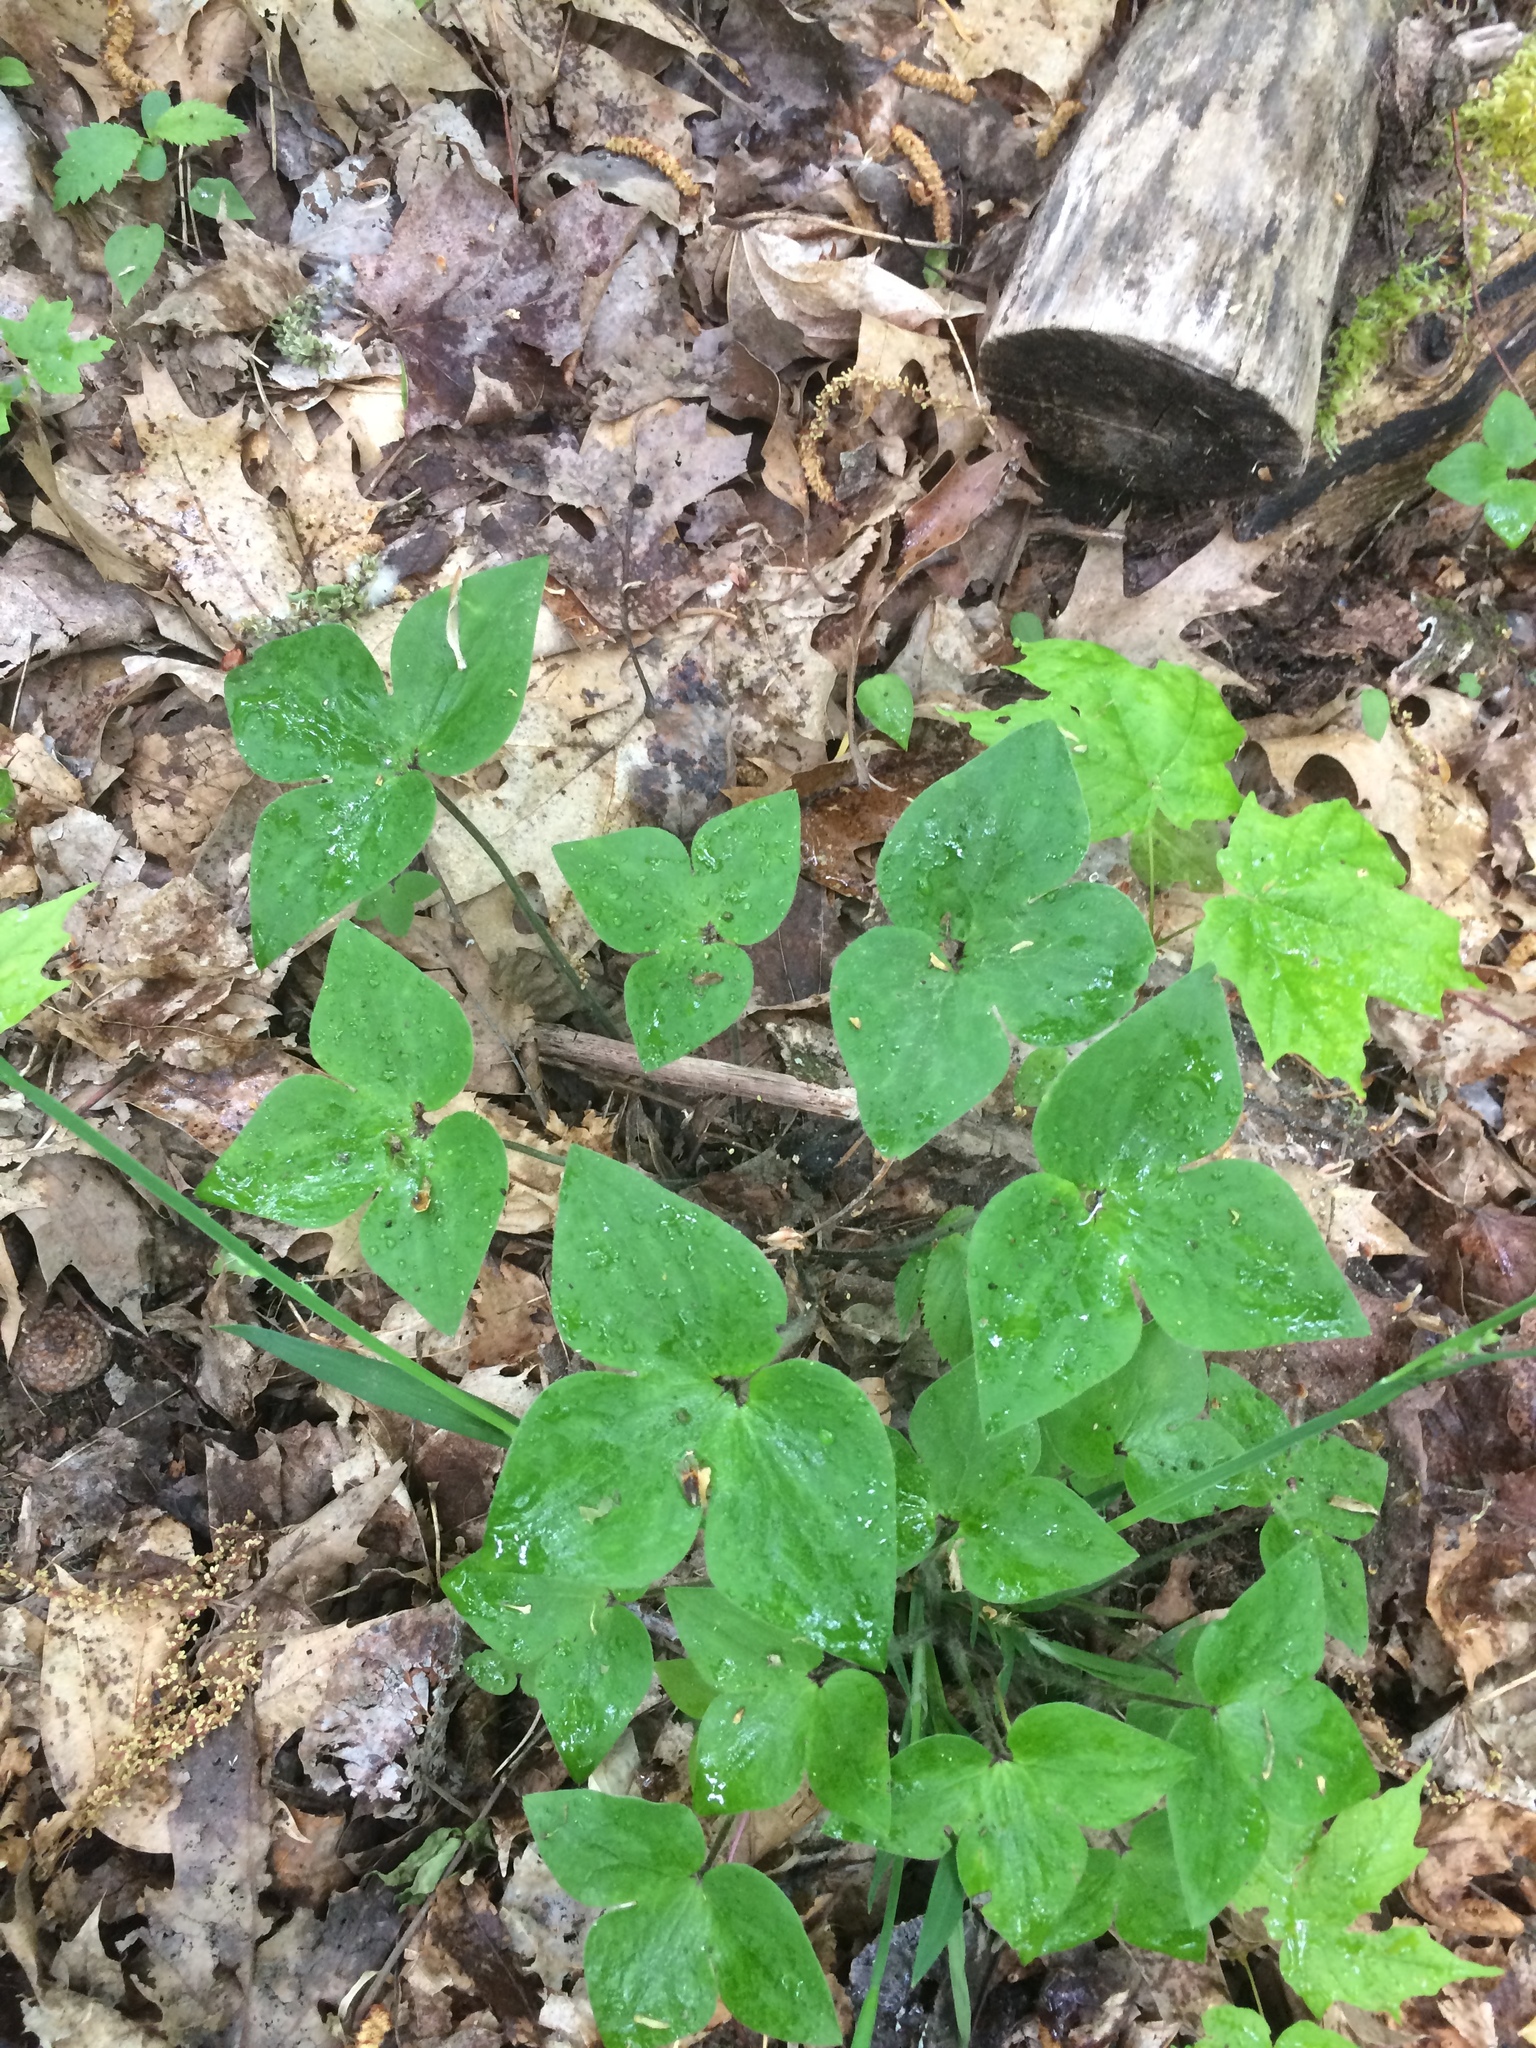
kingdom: Plantae
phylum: Tracheophyta
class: Magnoliopsida
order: Ranunculales
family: Ranunculaceae
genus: Hepatica
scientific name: Hepatica acutiloba
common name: Sharp-lobed hepatica
